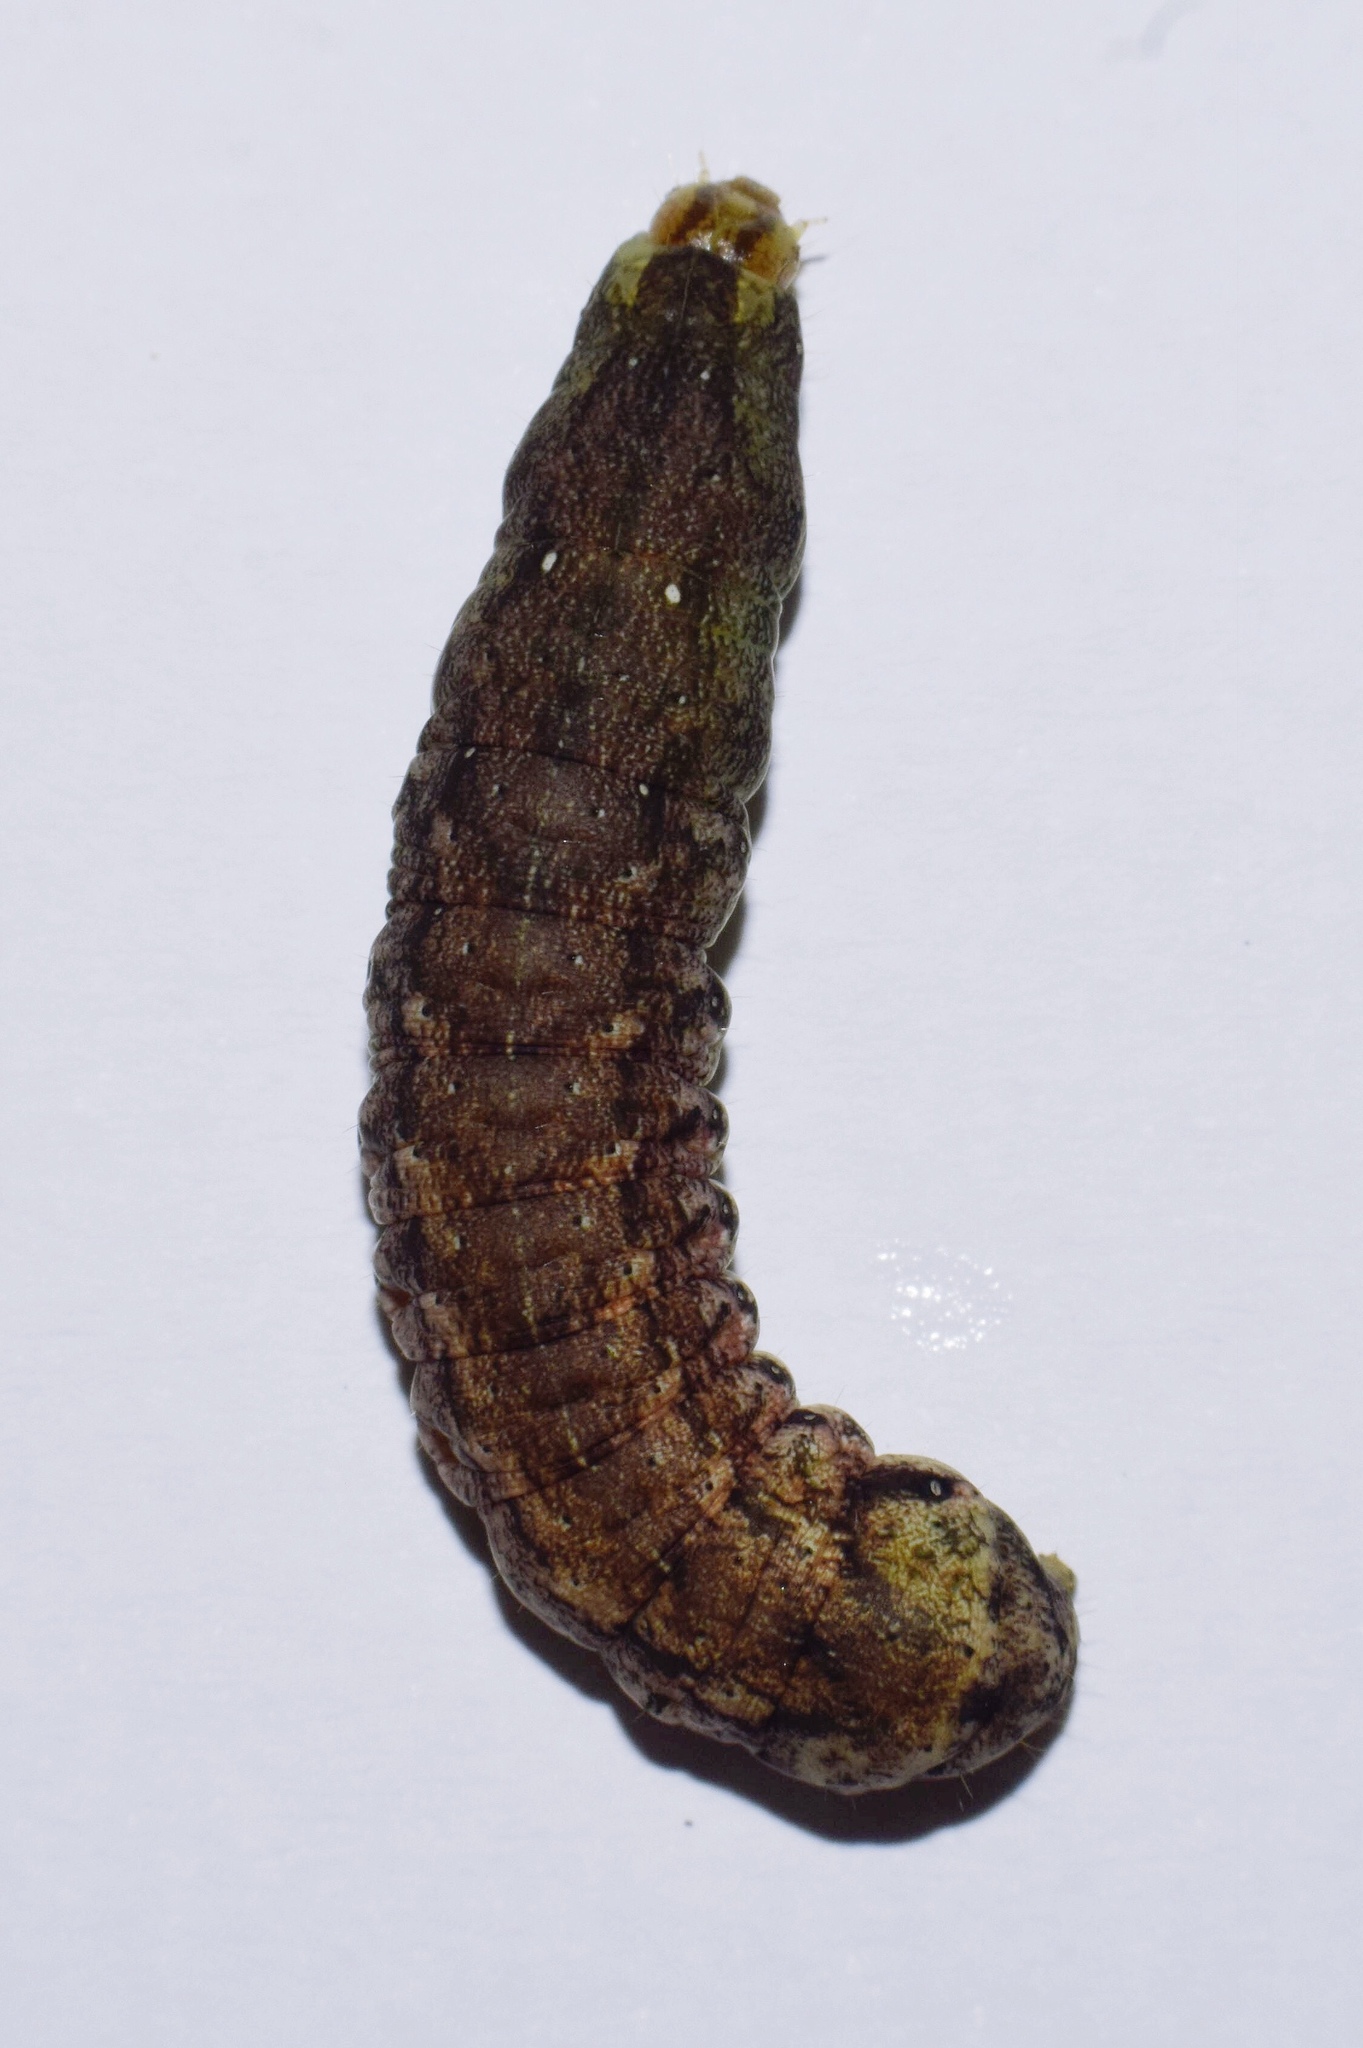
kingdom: Animalia
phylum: Arthropoda
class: Insecta
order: Lepidoptera
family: Noctuidae
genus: Mentaxya
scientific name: Mentaxya ignicollis
